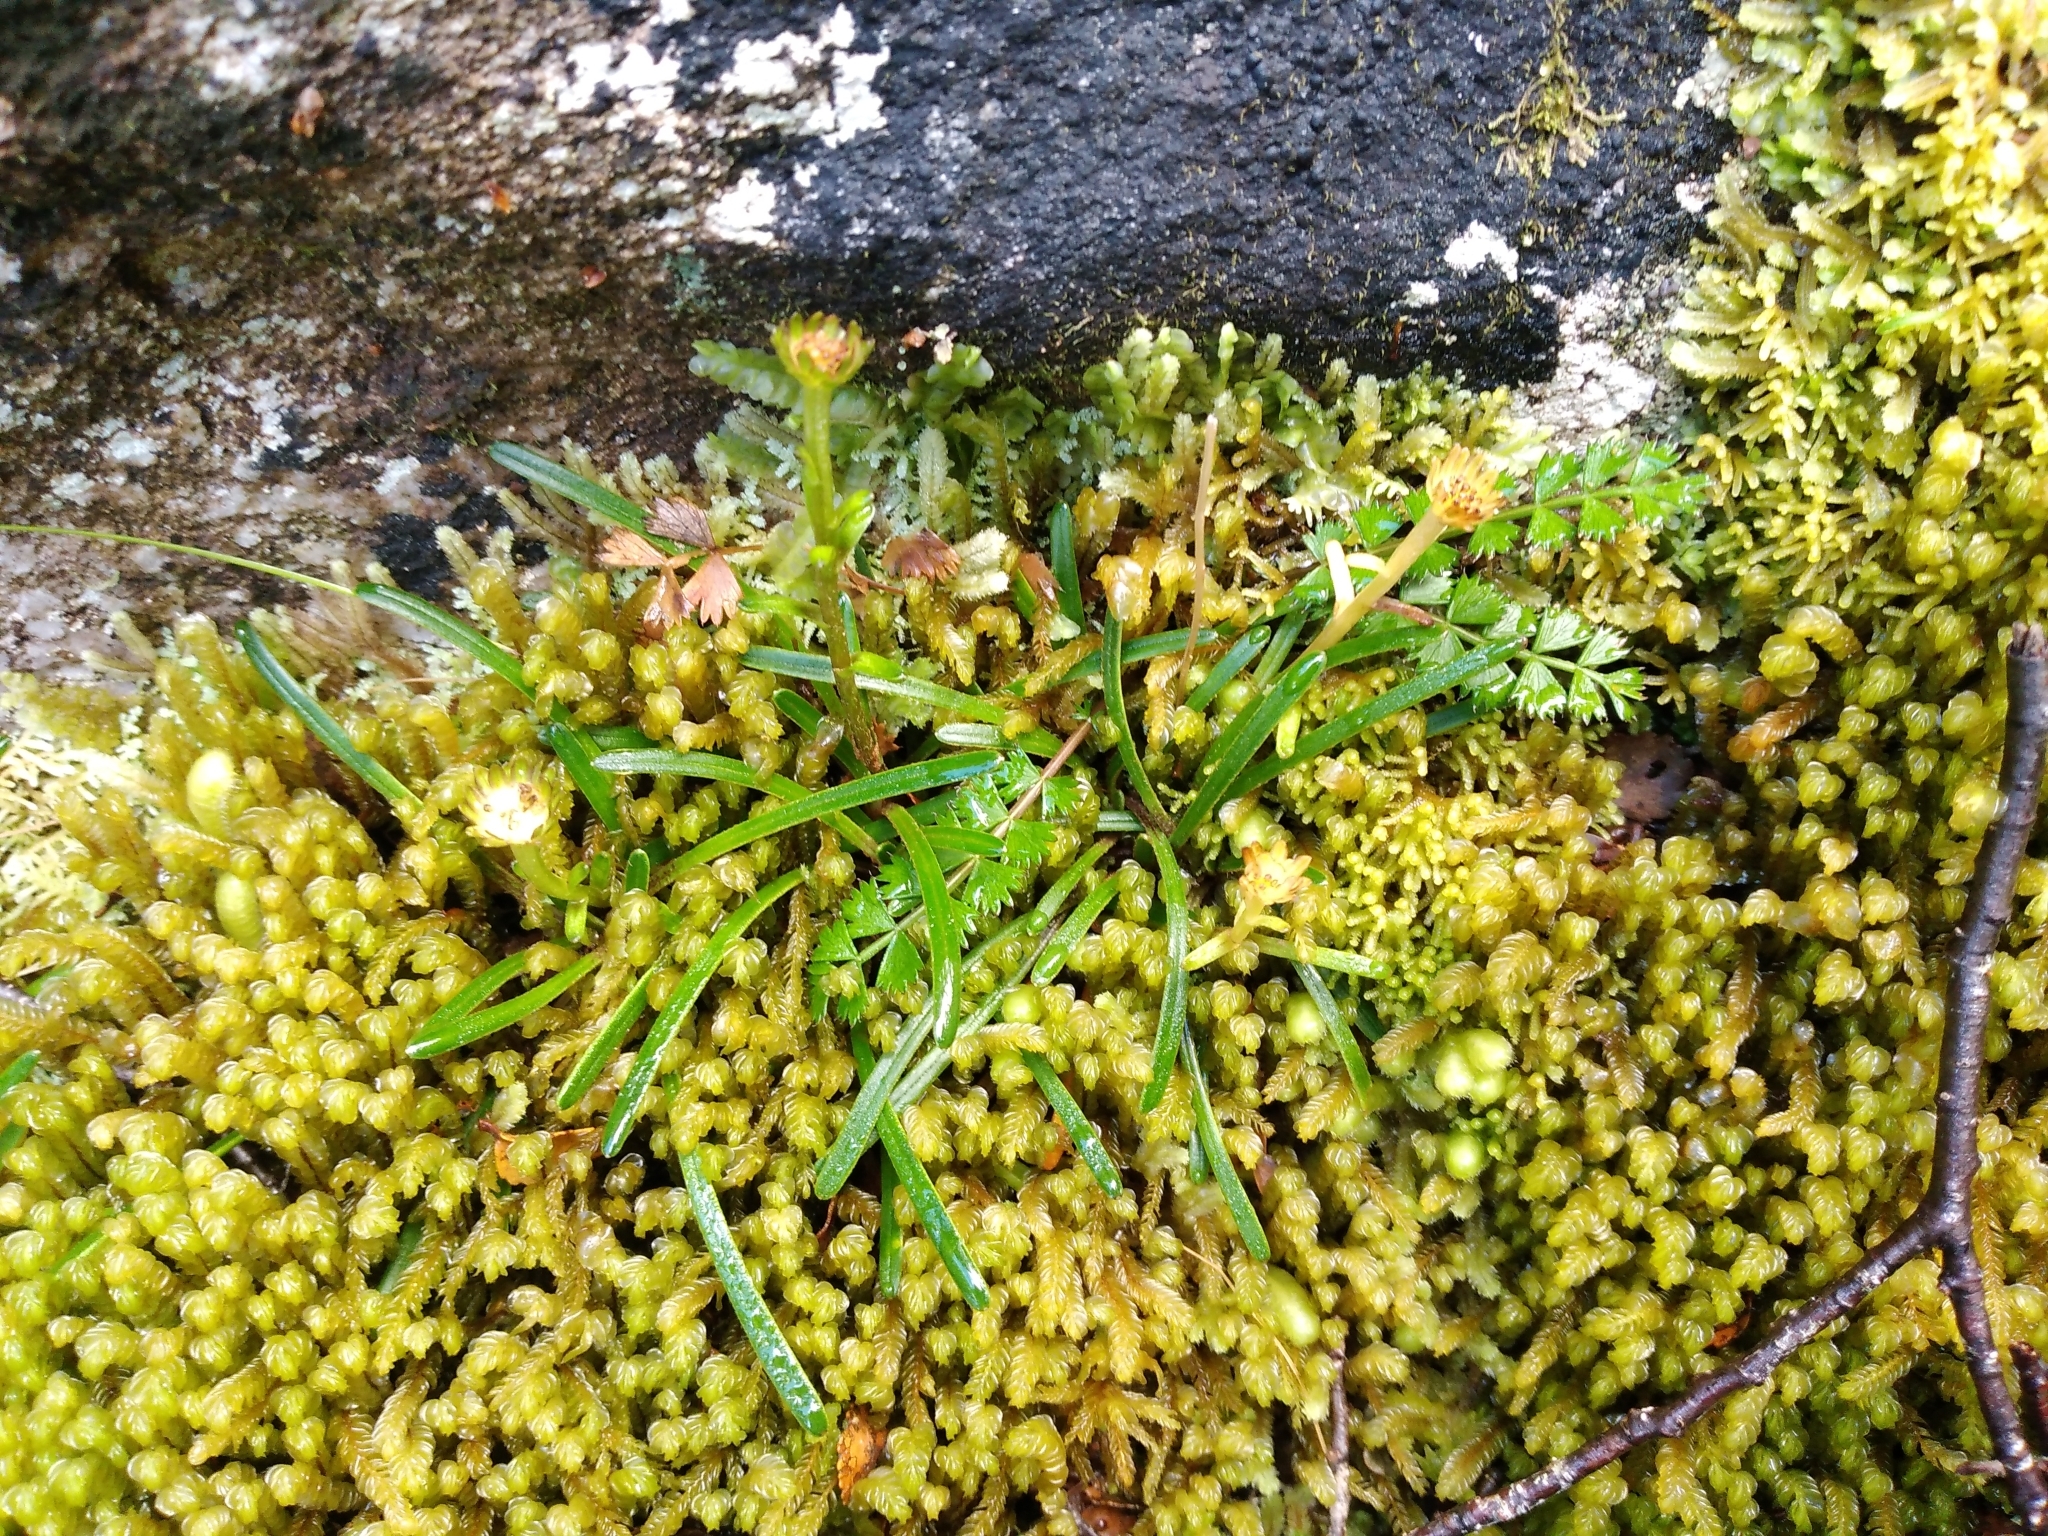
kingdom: Plantae
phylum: Tracheophyta
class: Magnoliopsida
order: Asterales
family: Asteraceae
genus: Abrotanella
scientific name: Abrotanella linearis
